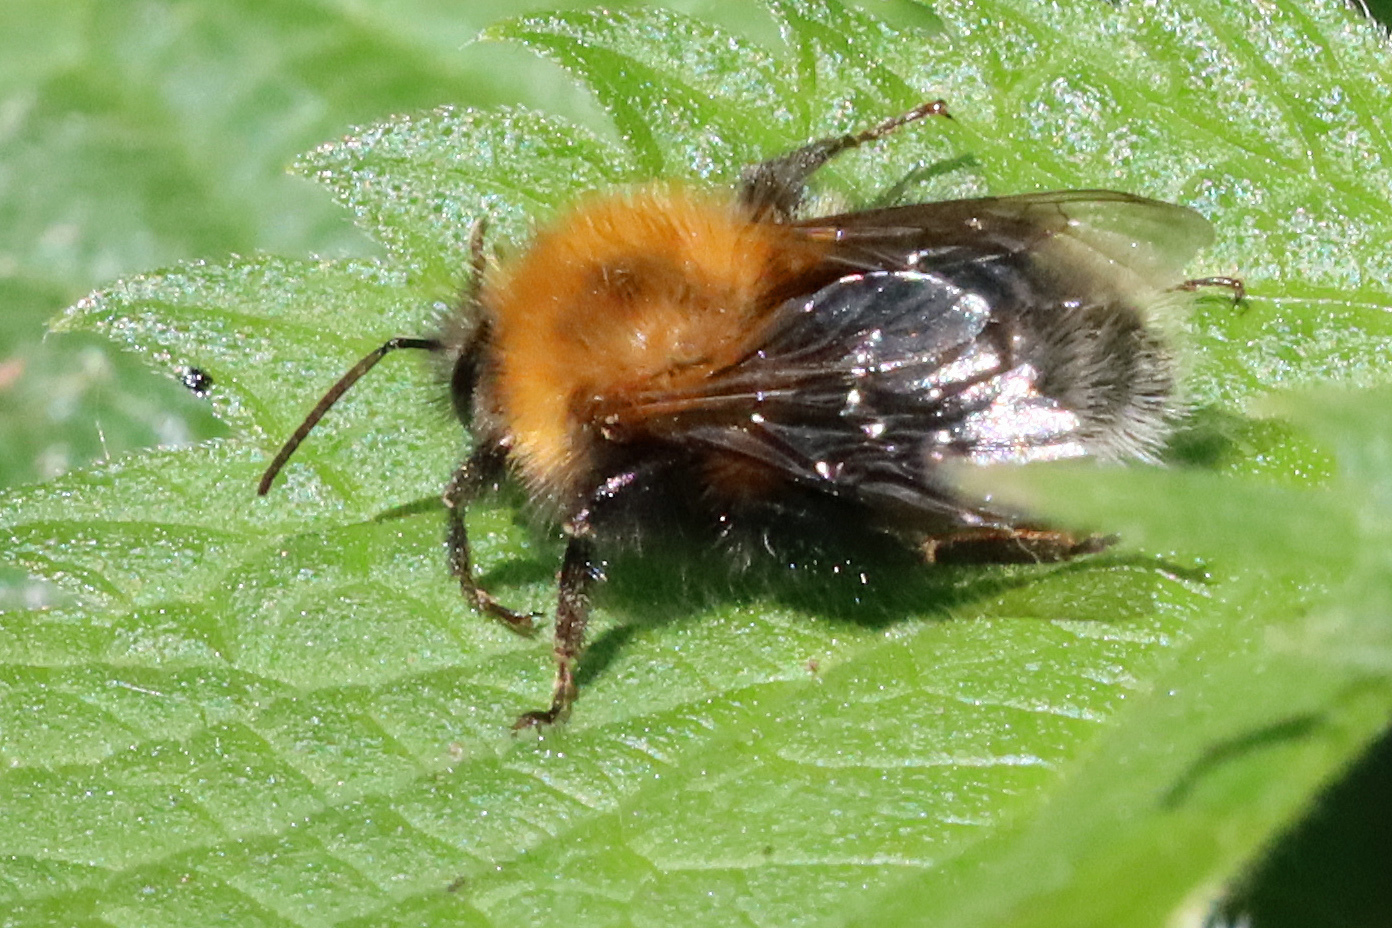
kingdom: Animalia
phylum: Arthropoda
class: Insecta
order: Hymenoptera
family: Apidae
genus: Bombus
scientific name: Bombus hypnorum
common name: New garden bumblebee
